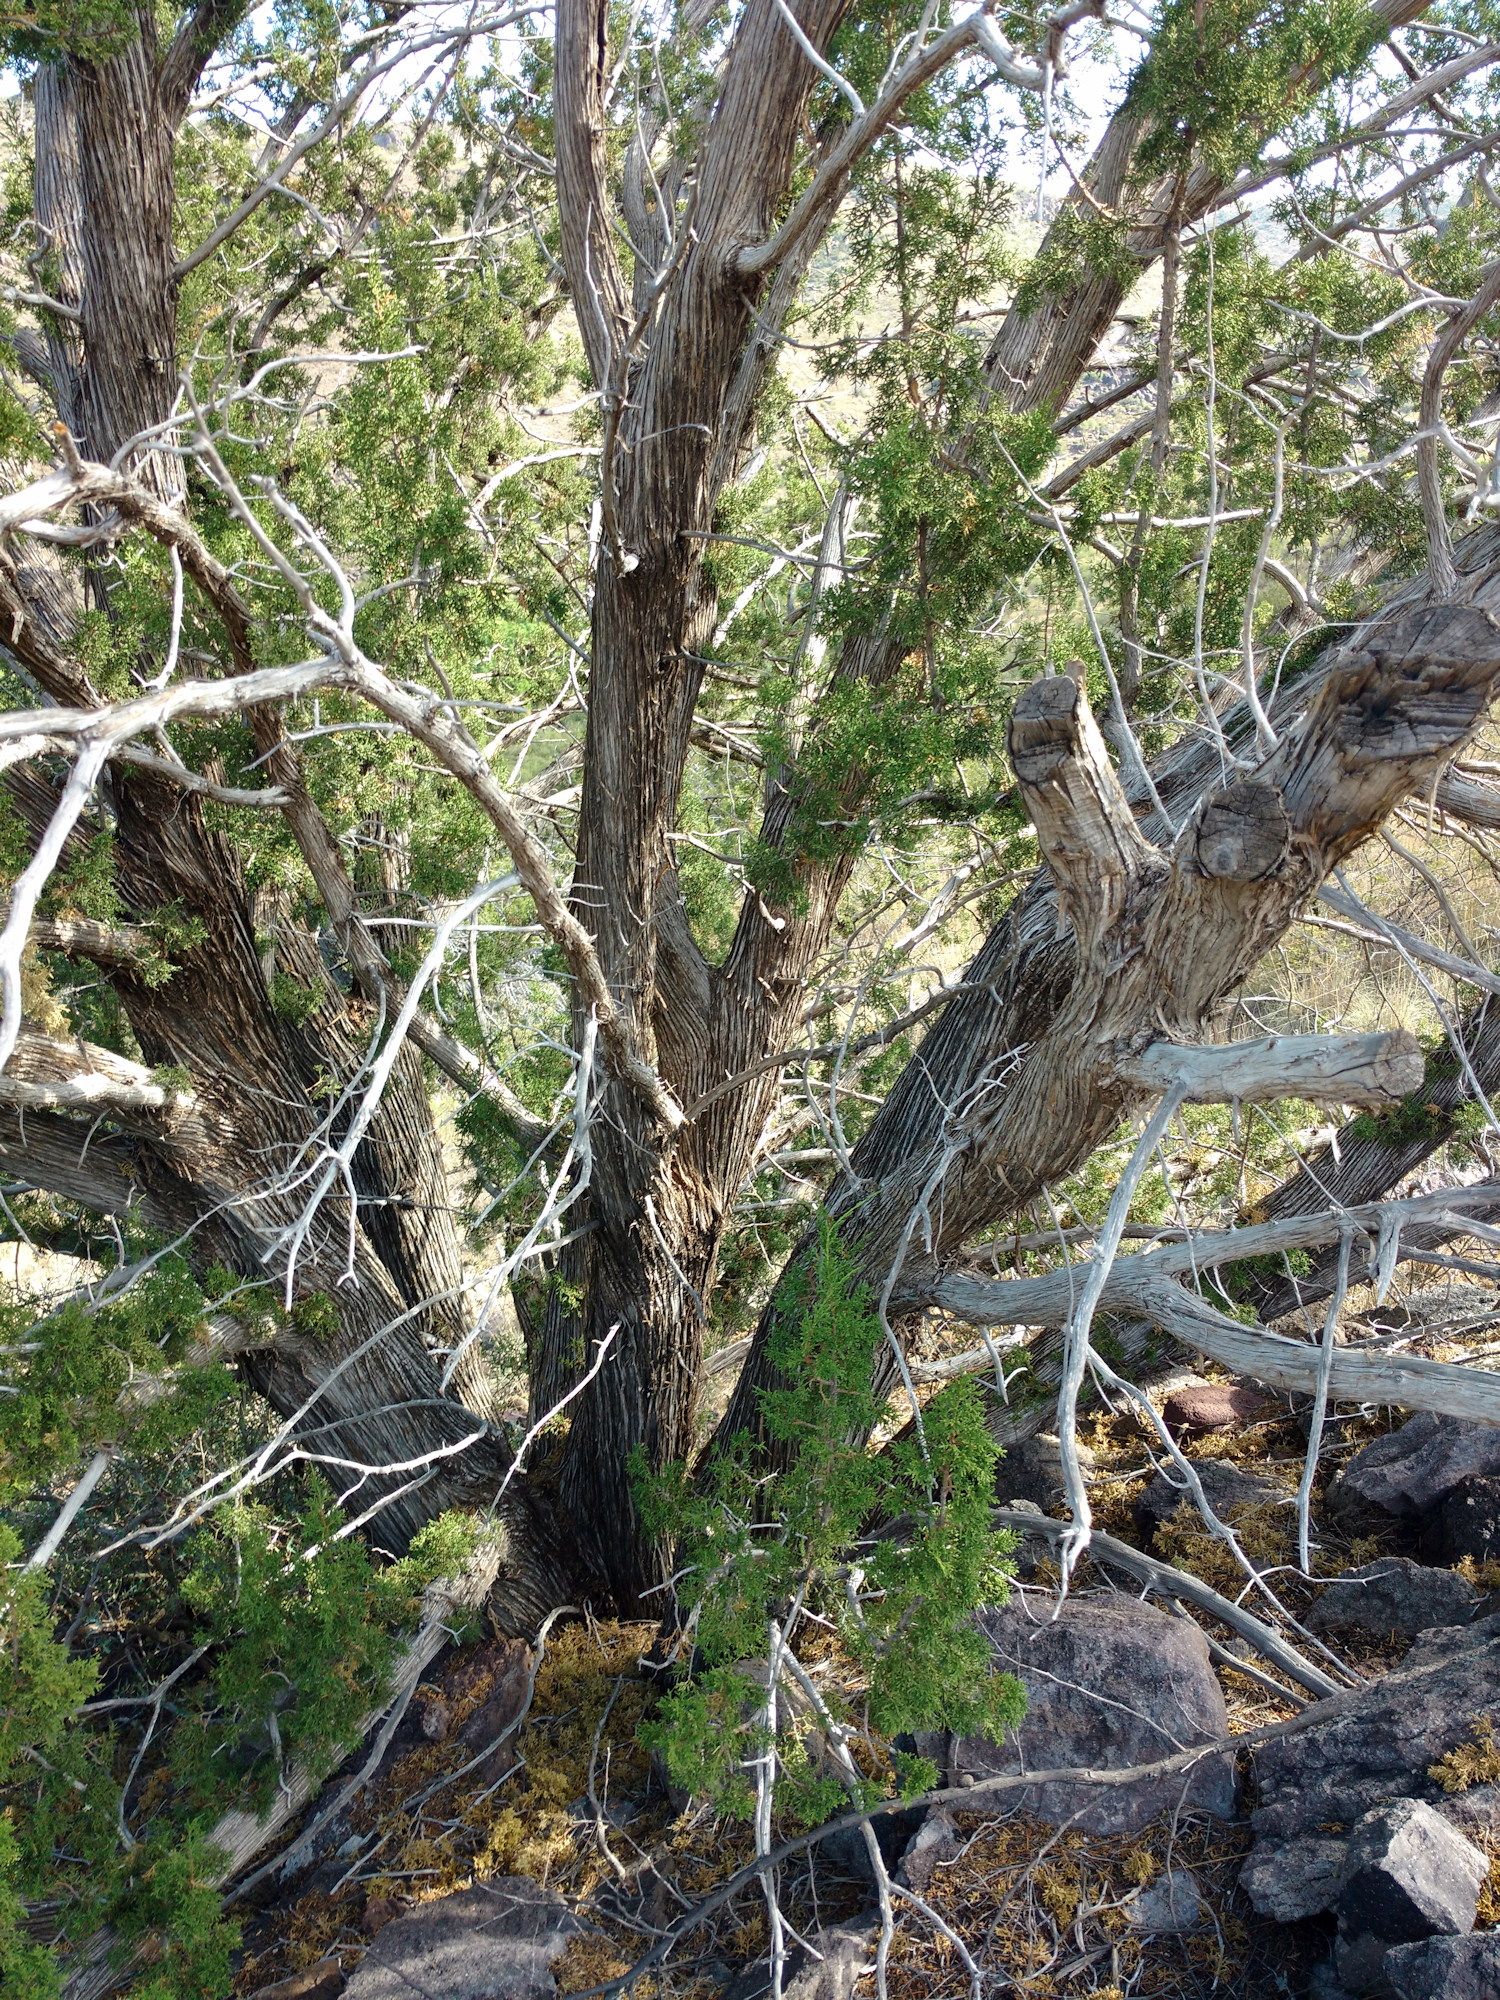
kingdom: Plantae
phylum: Tracheophyta
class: Pinopsida
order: Pinales
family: Cupressaceae
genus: Juniperus
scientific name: Juniperus pinchotii
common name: Pinchot juniper
